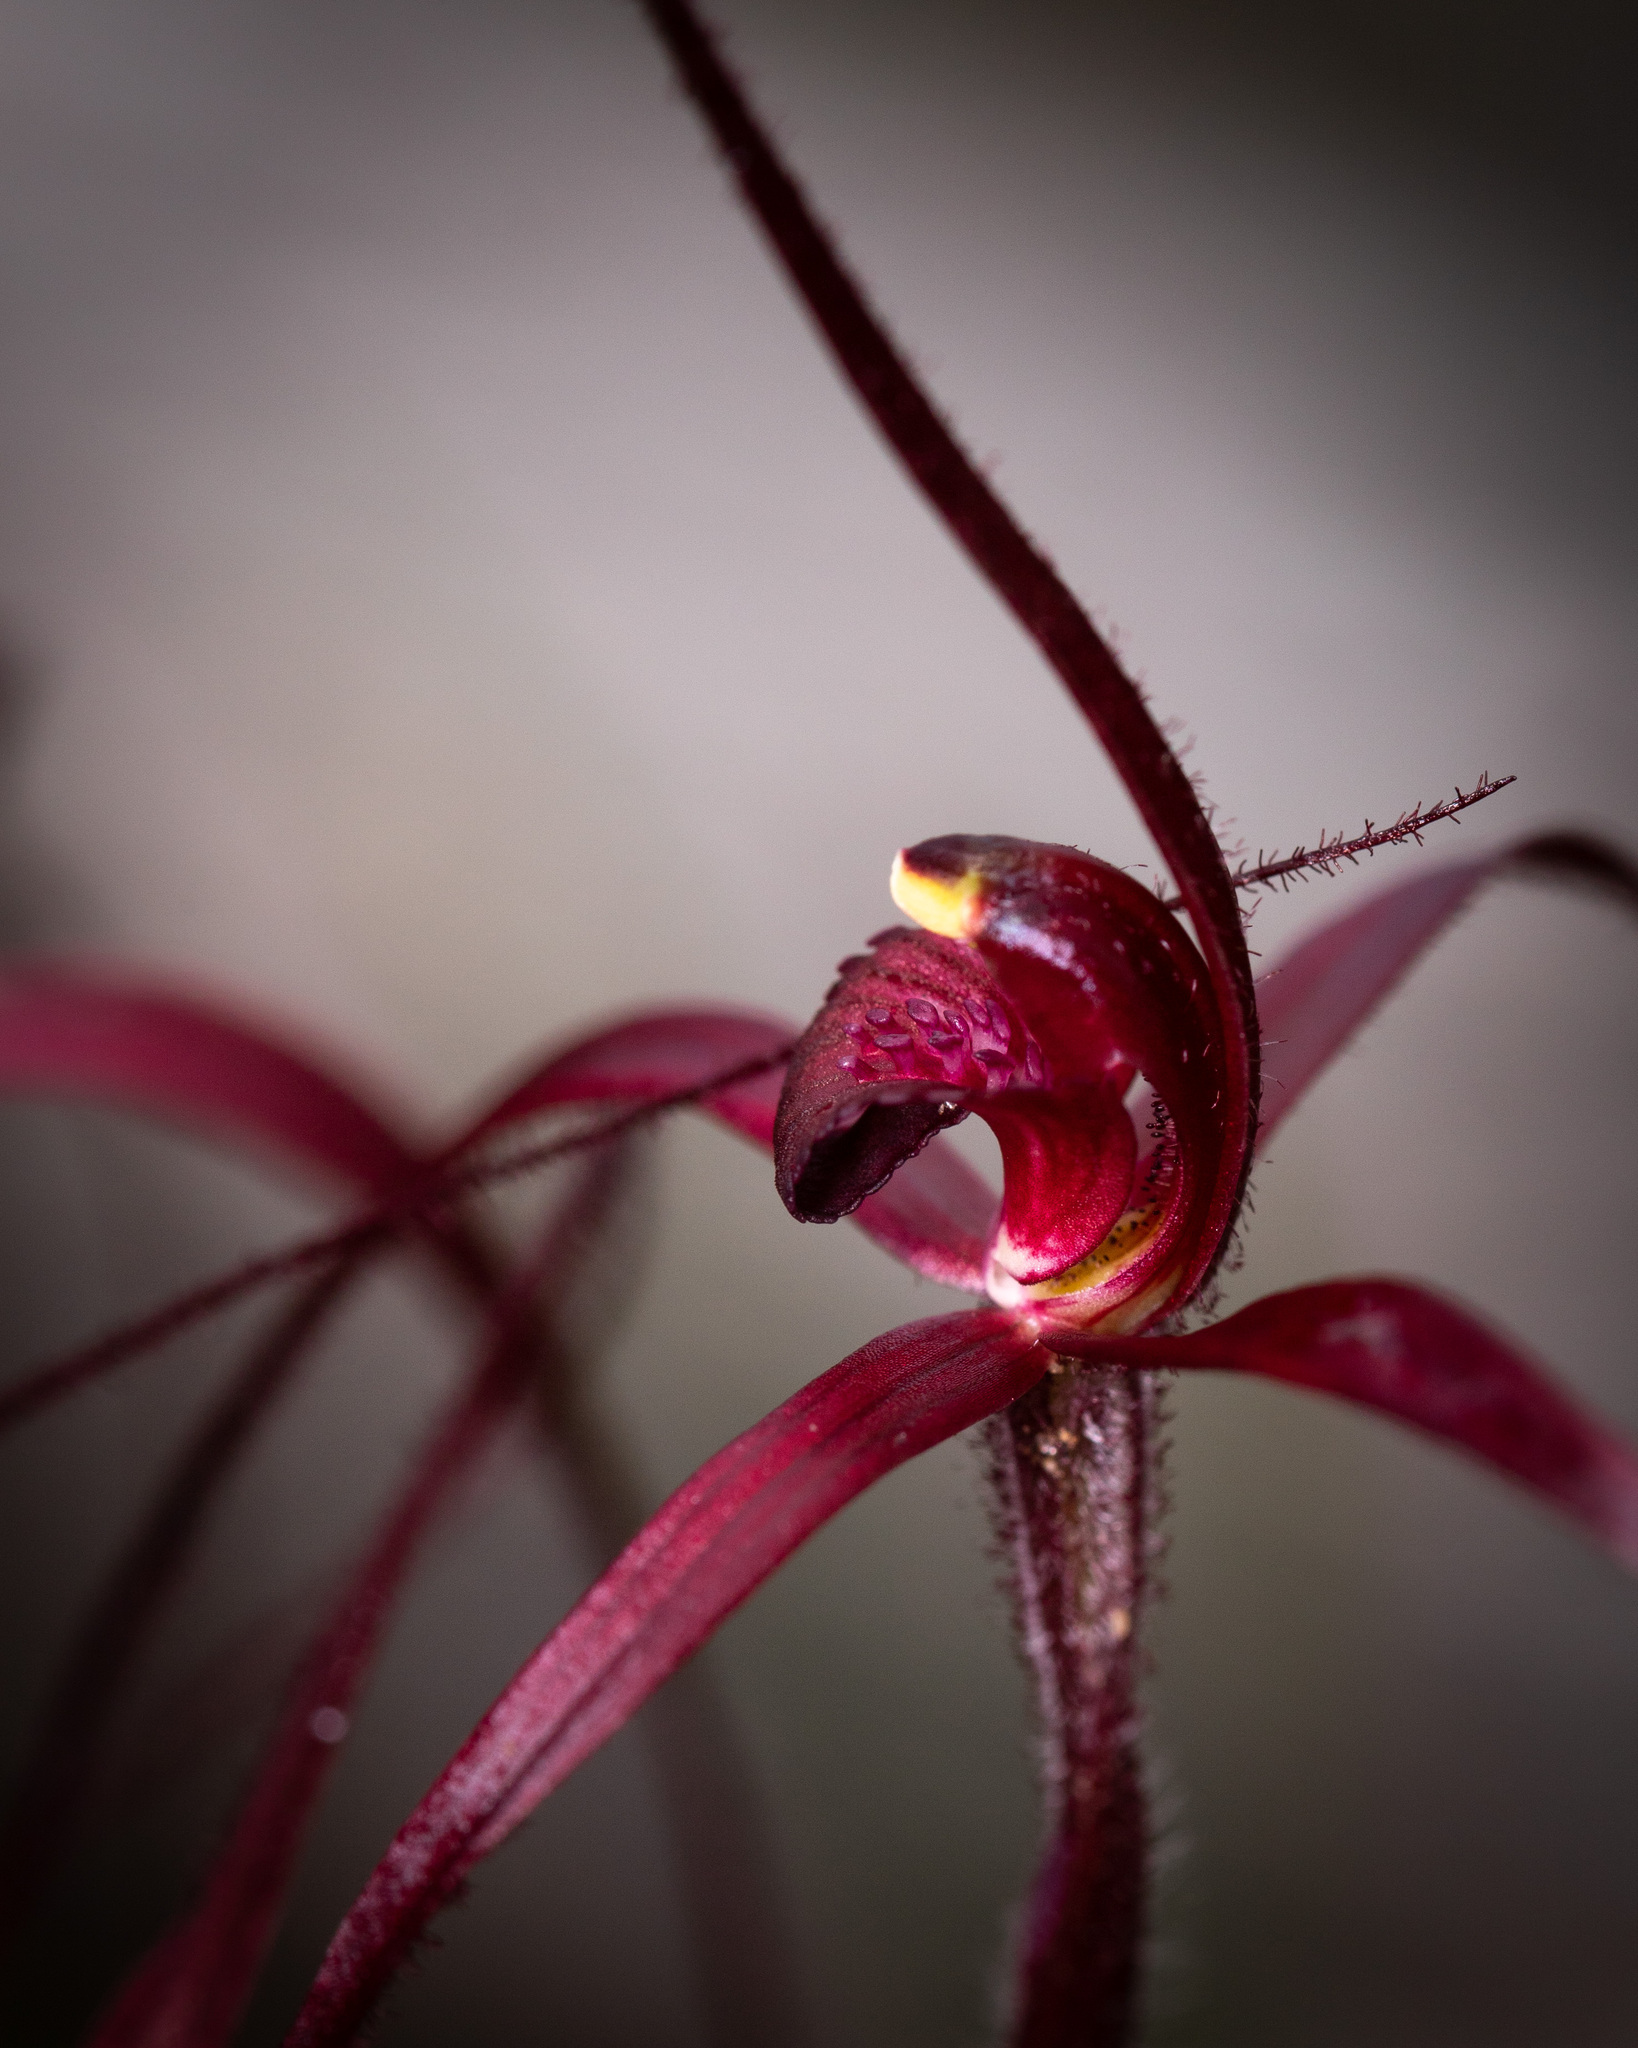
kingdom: Plantae
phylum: Tracheophyta
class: Liliopsida
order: Asparagales
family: Orchidaceae
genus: Caladenia
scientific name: Caladenia dundasiae
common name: Dunda's spider orchid
